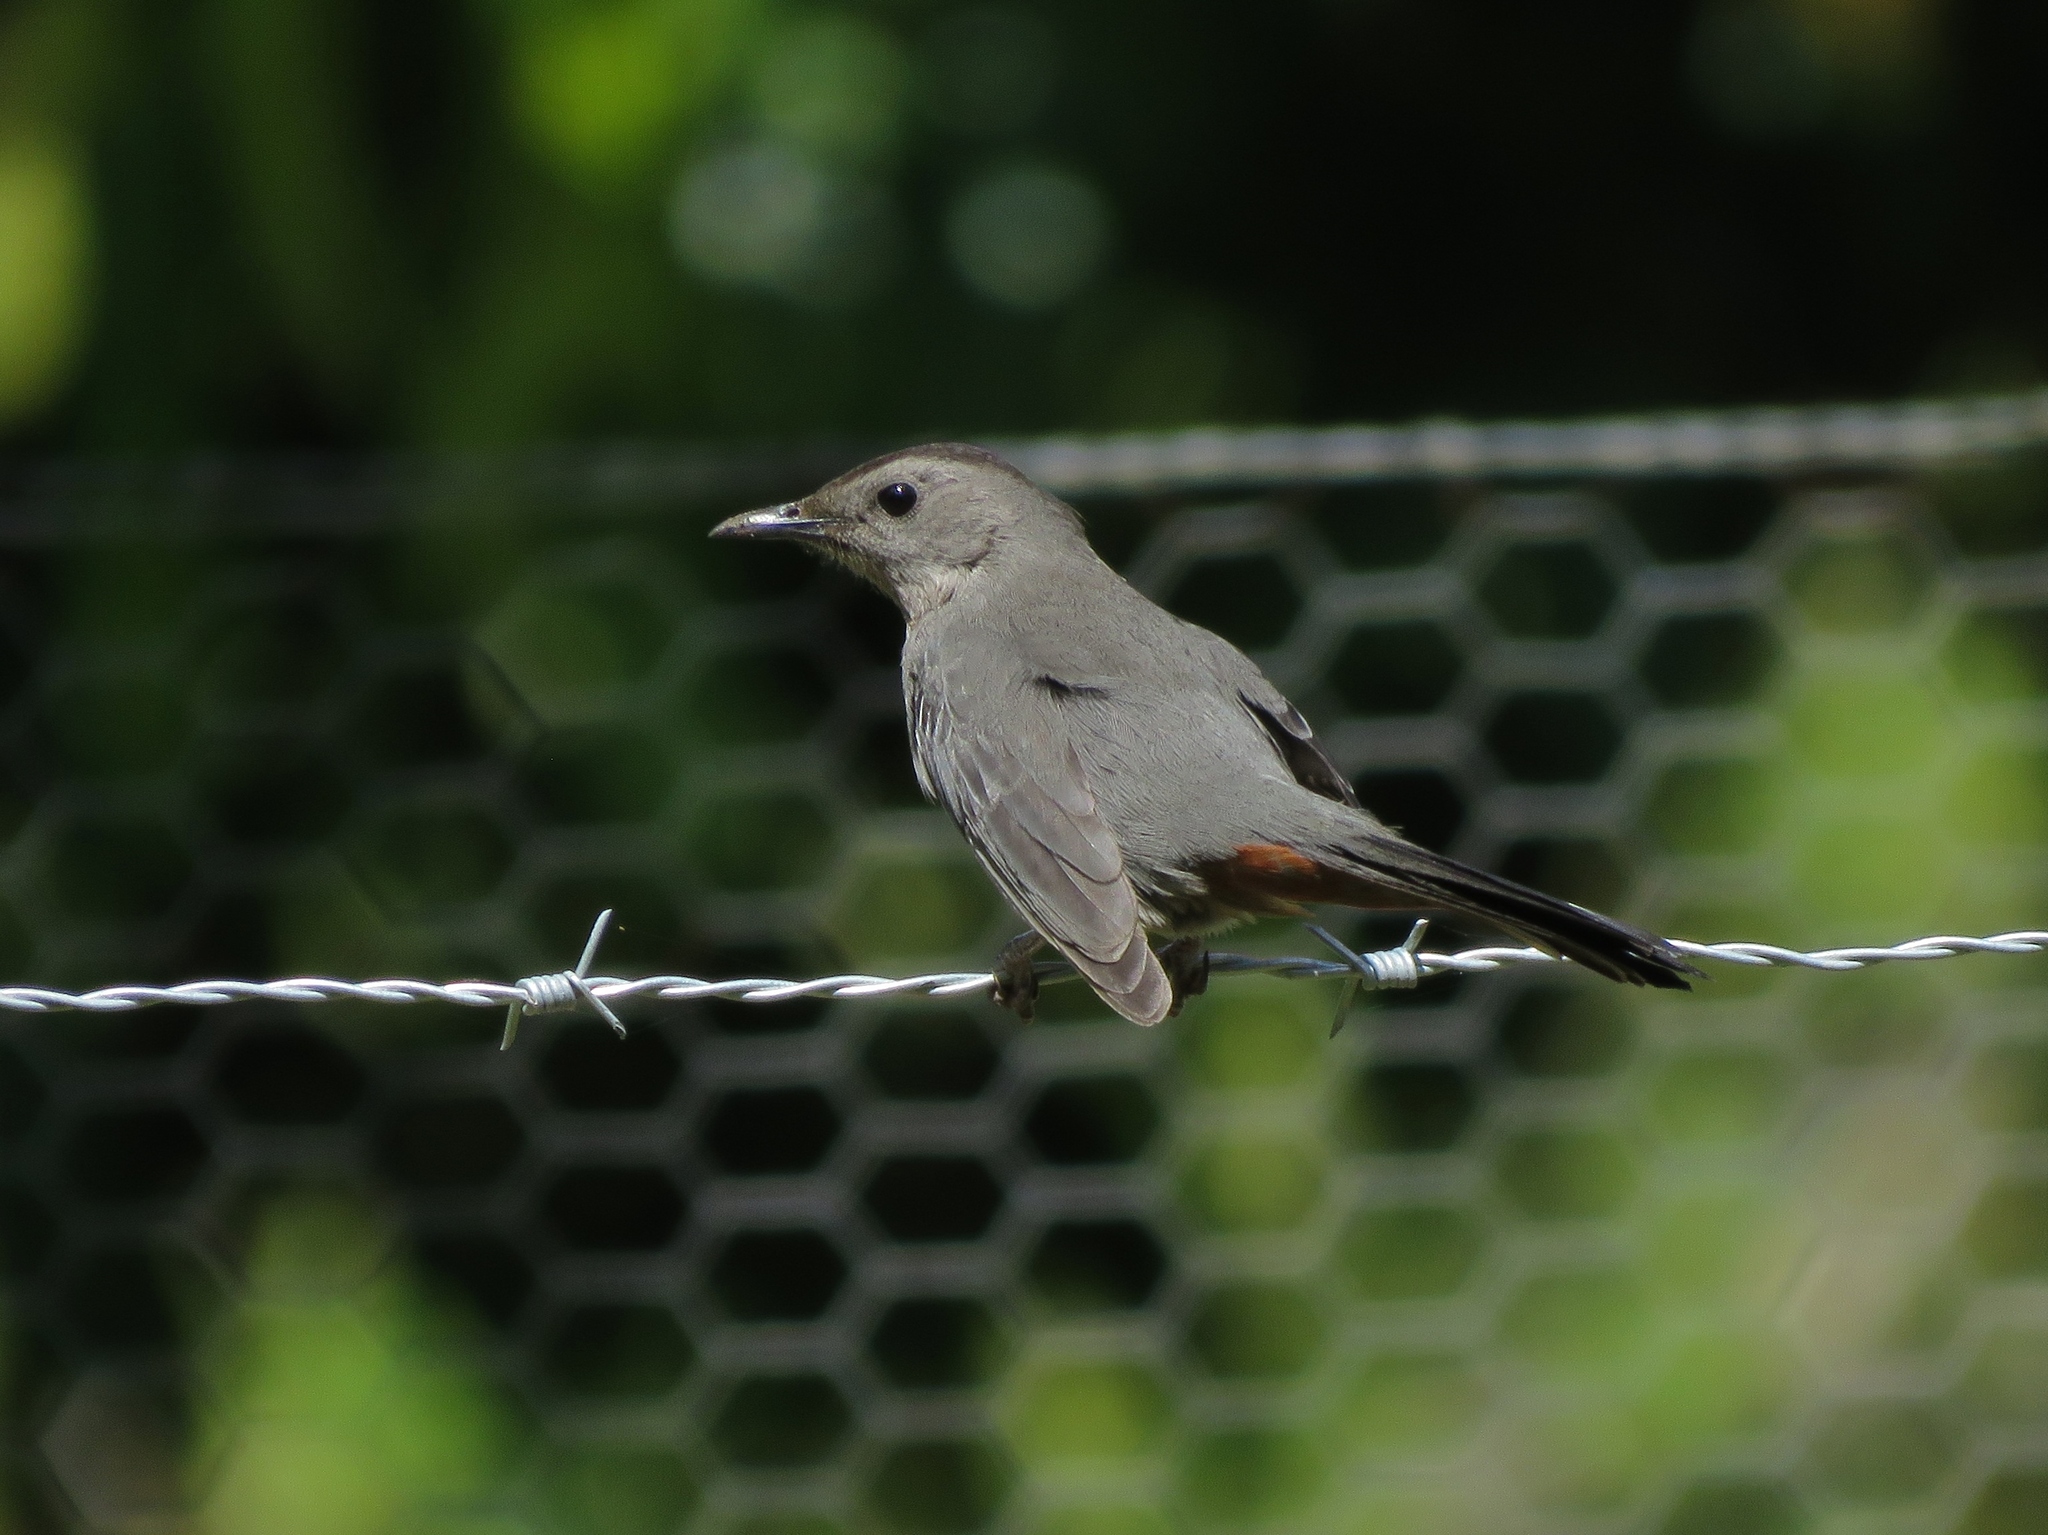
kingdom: Animalia
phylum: Chordata
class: Aves
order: Passeriformes
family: Mimidae
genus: Dumetella
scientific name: Dumetella carolinensis
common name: Gray catbird
